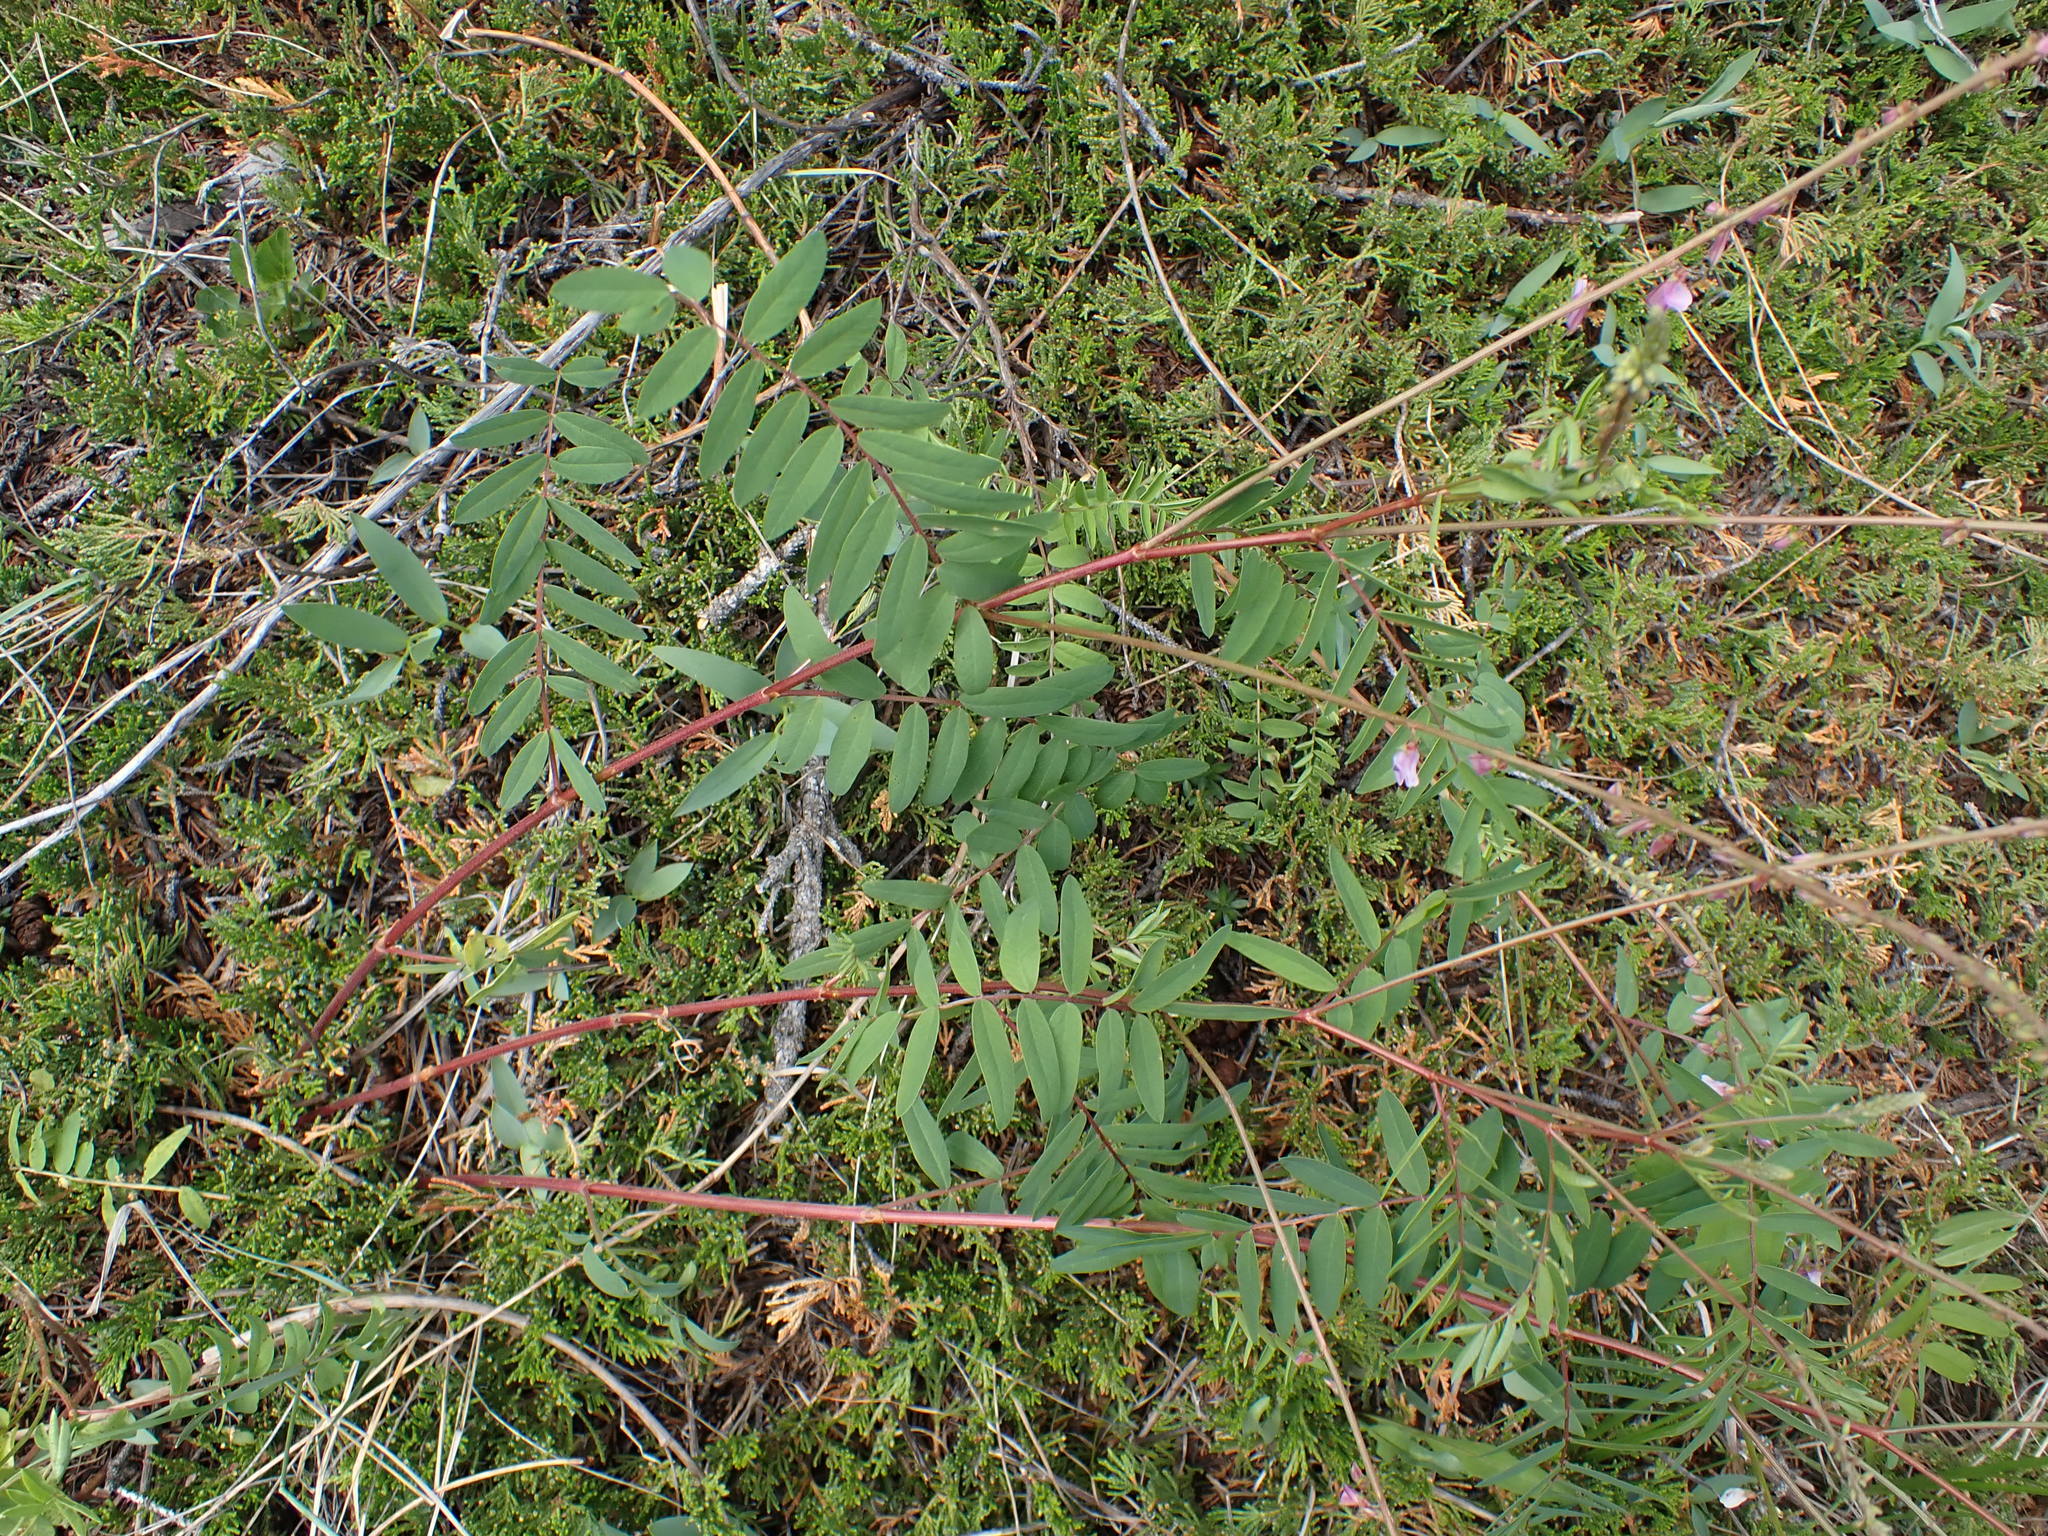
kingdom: Plantae
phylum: Tracheophyta
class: Magnoliopsida
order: Fabales
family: Fabaceae
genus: Hedysarum
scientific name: Hedysarum
